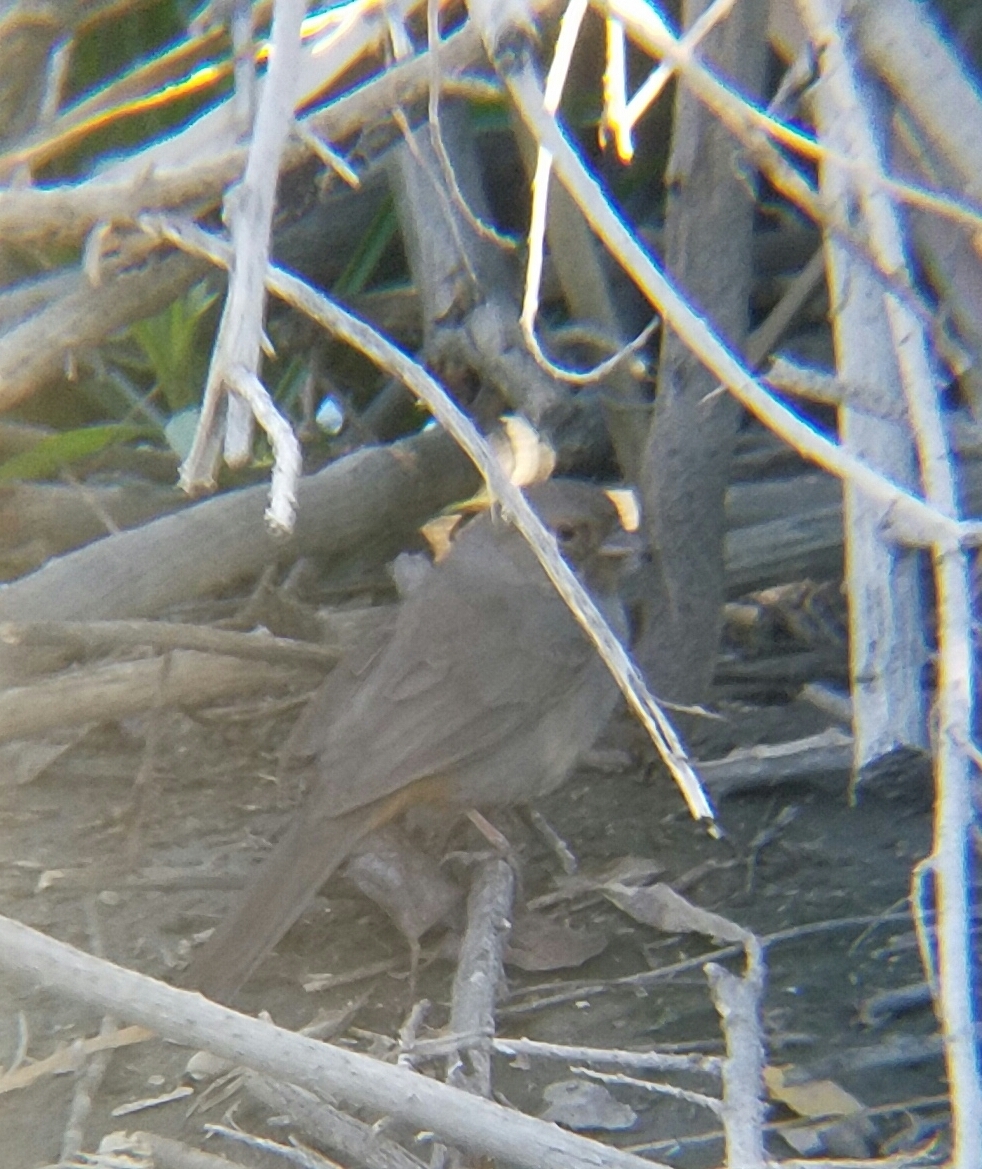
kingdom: Animalia
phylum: Chordata
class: Aves
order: Passeriformes
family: Passerellidae
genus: Melozone
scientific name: Melozone crissalis
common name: California towhee
